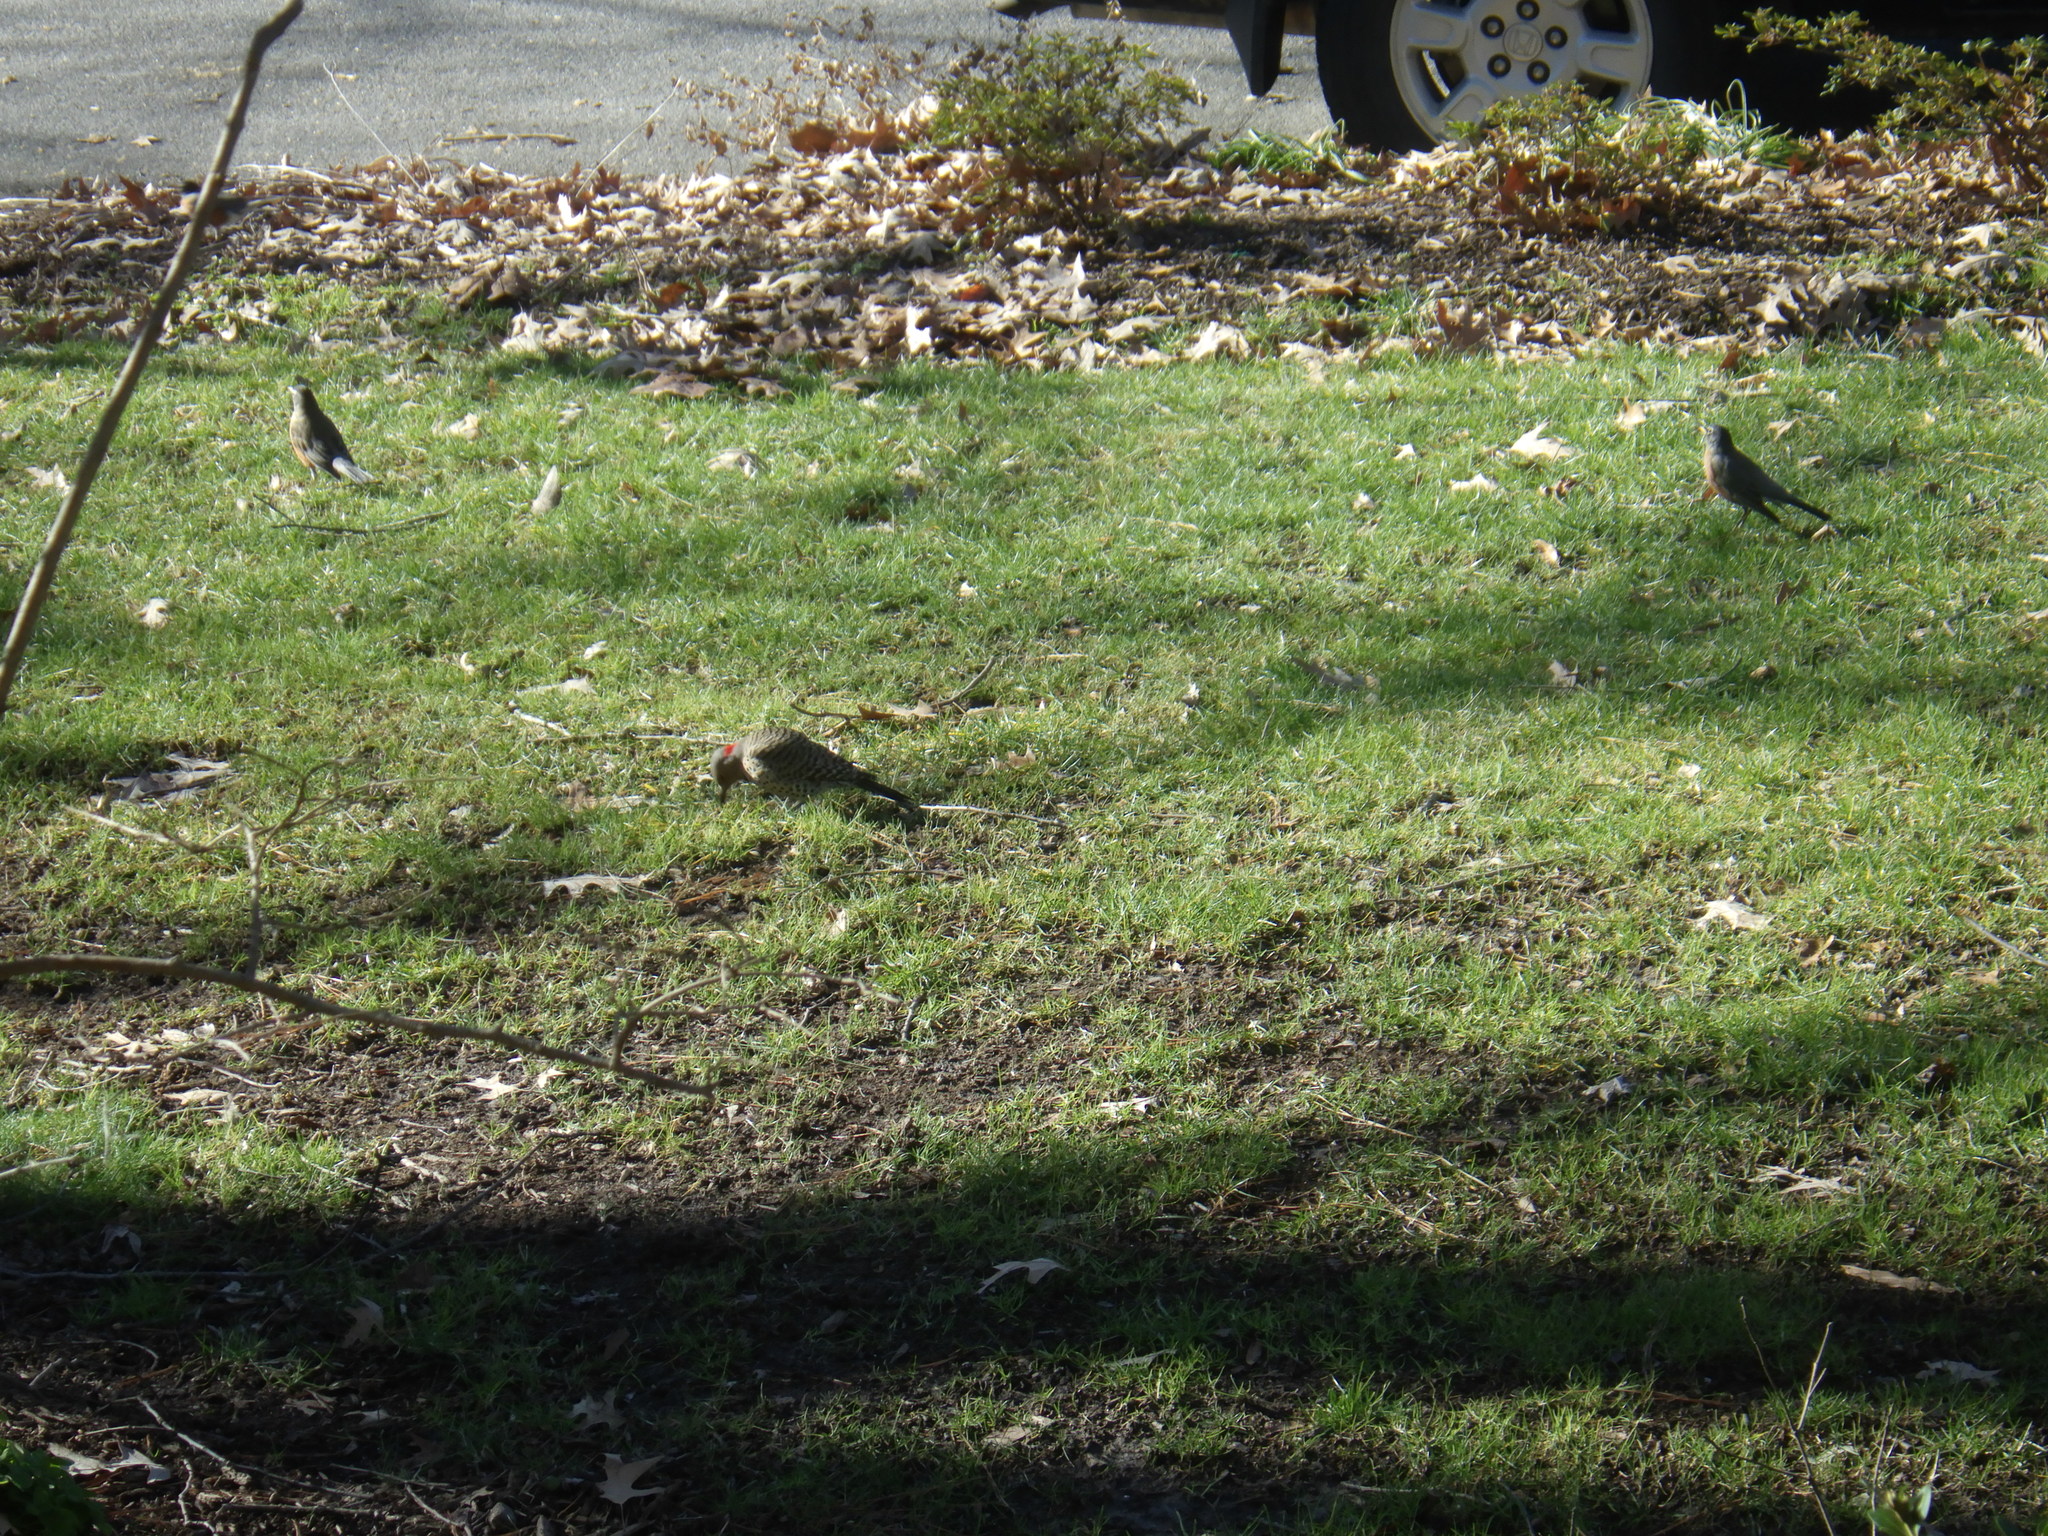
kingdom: Animalia
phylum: Chordata
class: Aves
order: Passeriformes
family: Turdidae
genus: Turdus
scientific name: Turdus migratorius
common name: American robin
